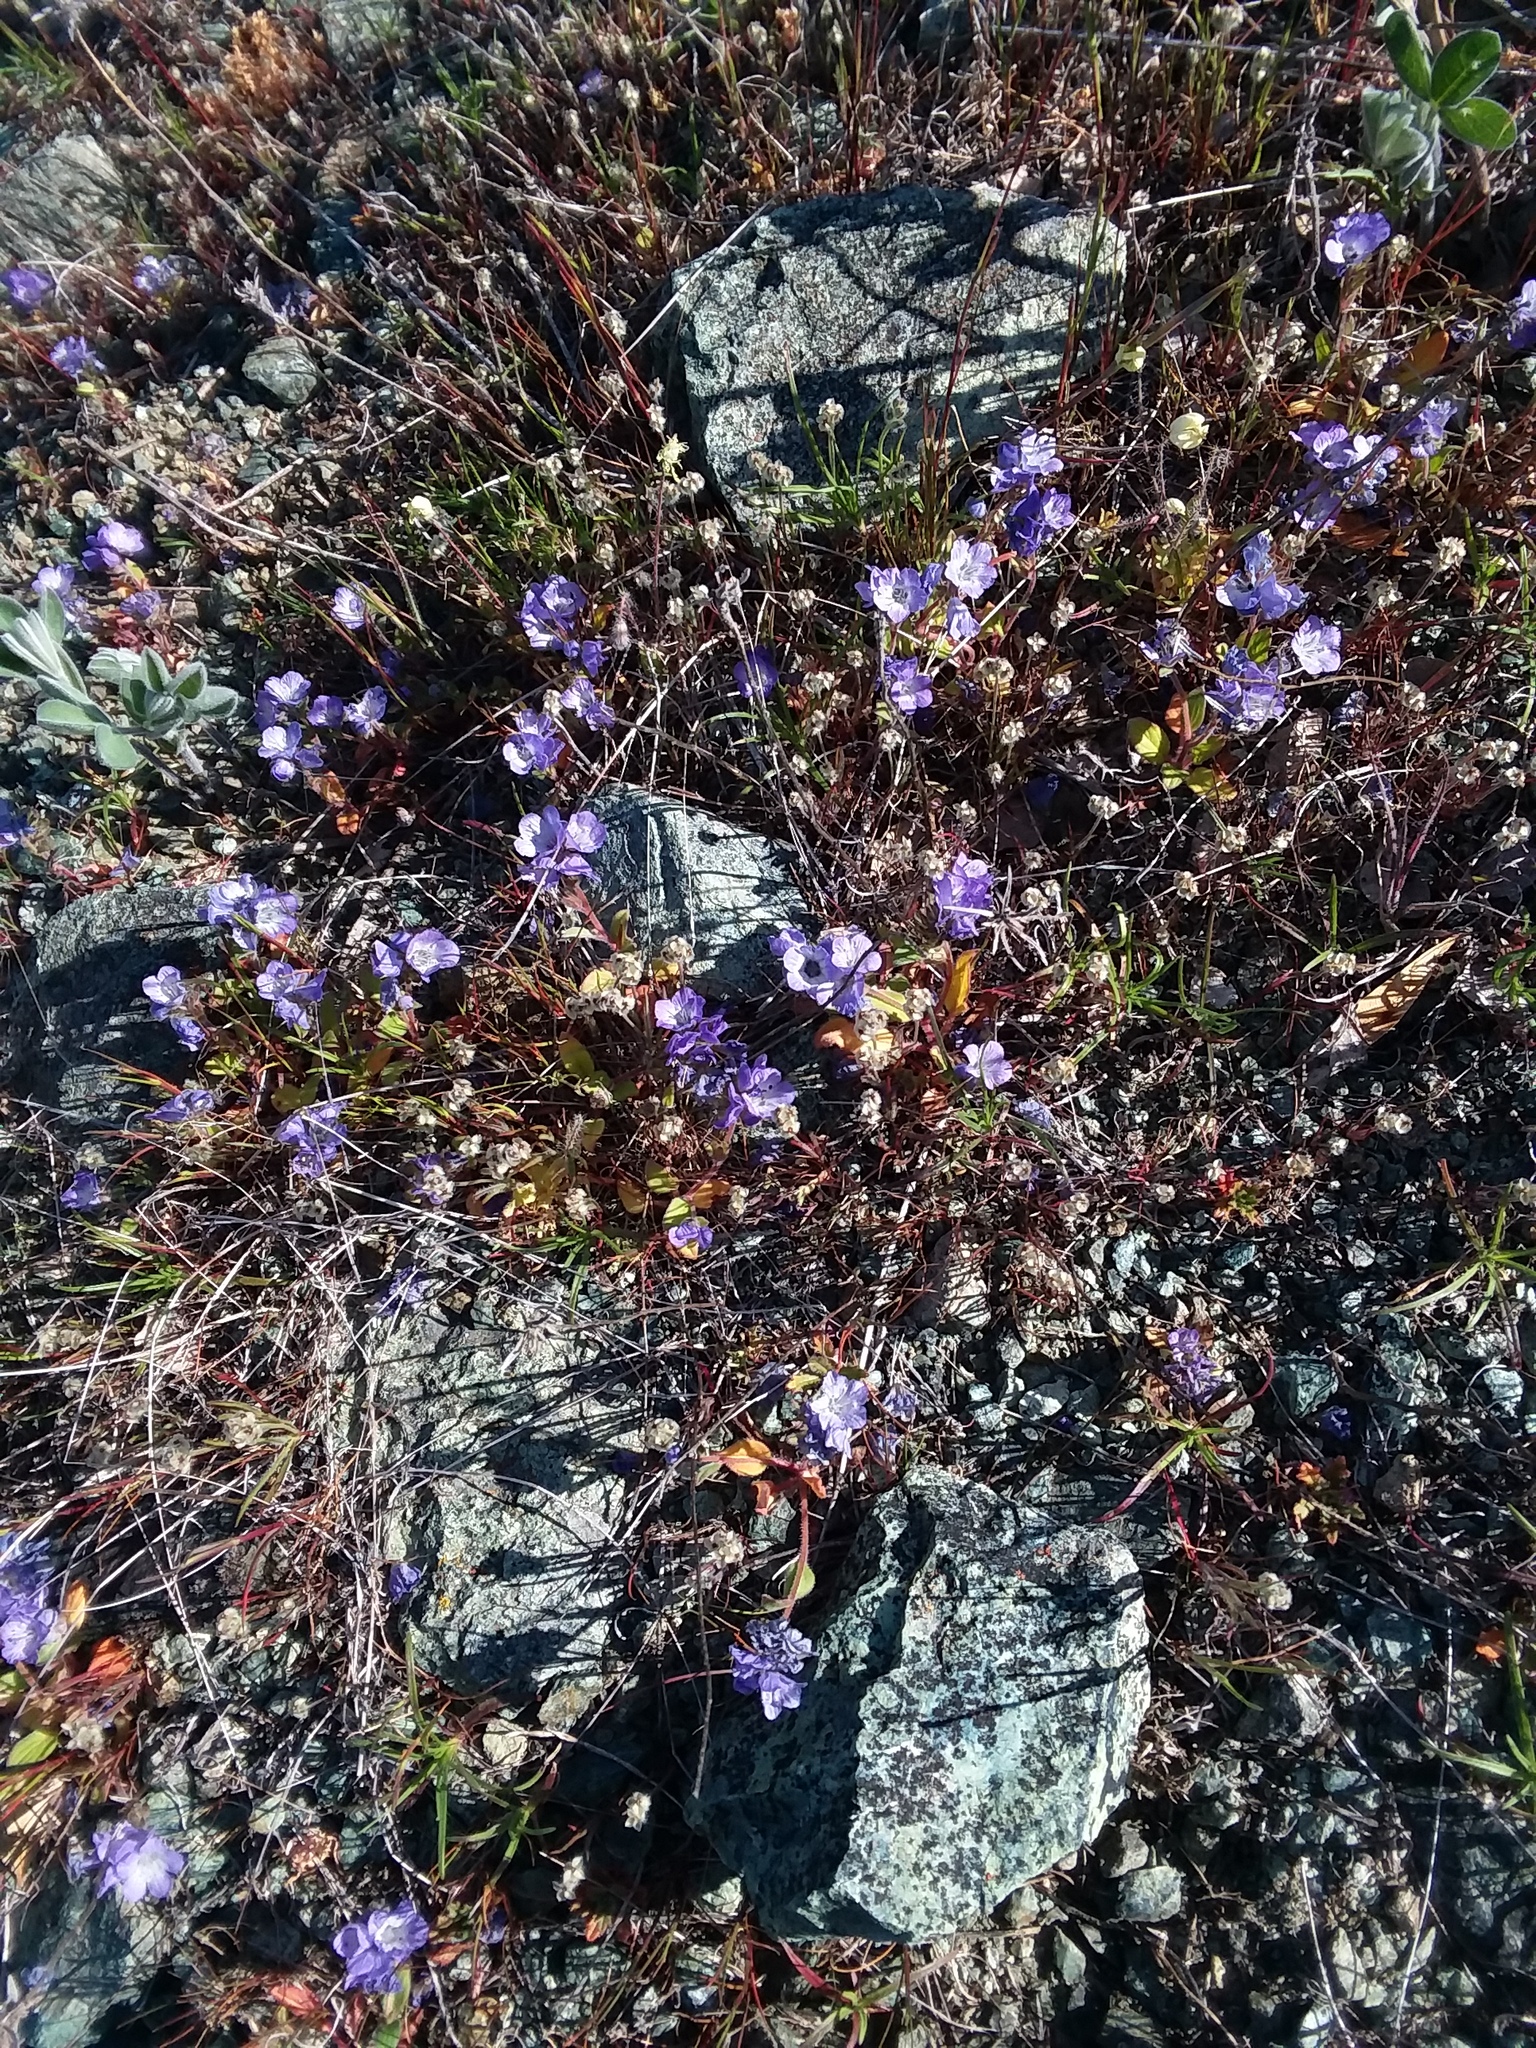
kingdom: Plantae
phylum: Tracheophyta
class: Magnoliopsida
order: Boraginales
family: Hydrophyllaceae
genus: Phacelia
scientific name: Phacelia divaricata
